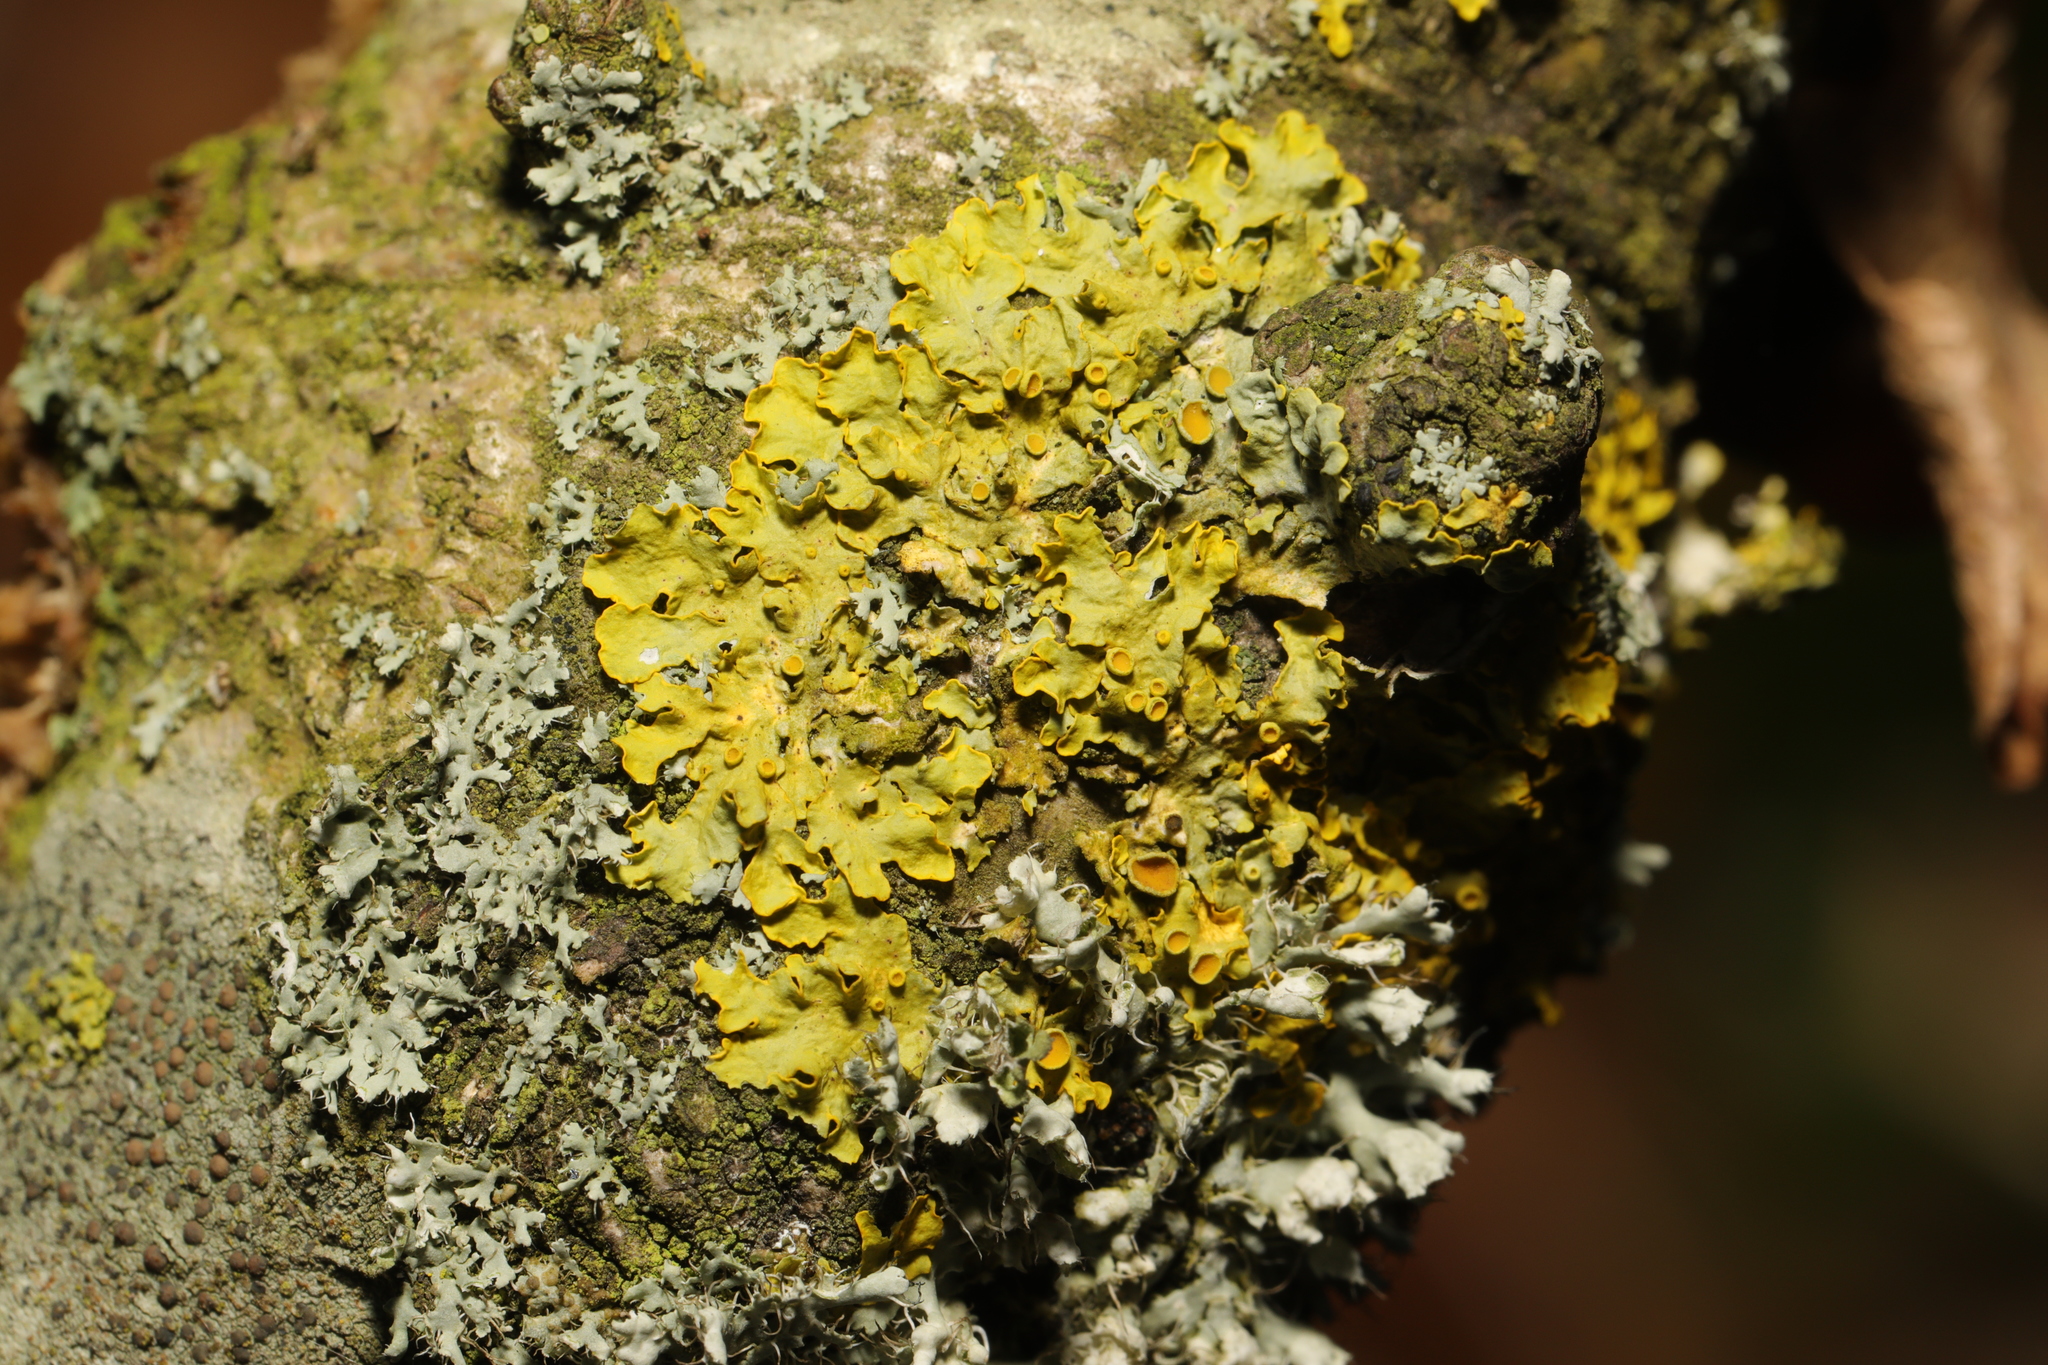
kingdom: Fungi
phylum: Ascomycota
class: Lecanoromycetes
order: Teloschistales
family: Teloschistaceae
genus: Xanthoria
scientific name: Xanthoria parietina
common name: Common orange lichen
